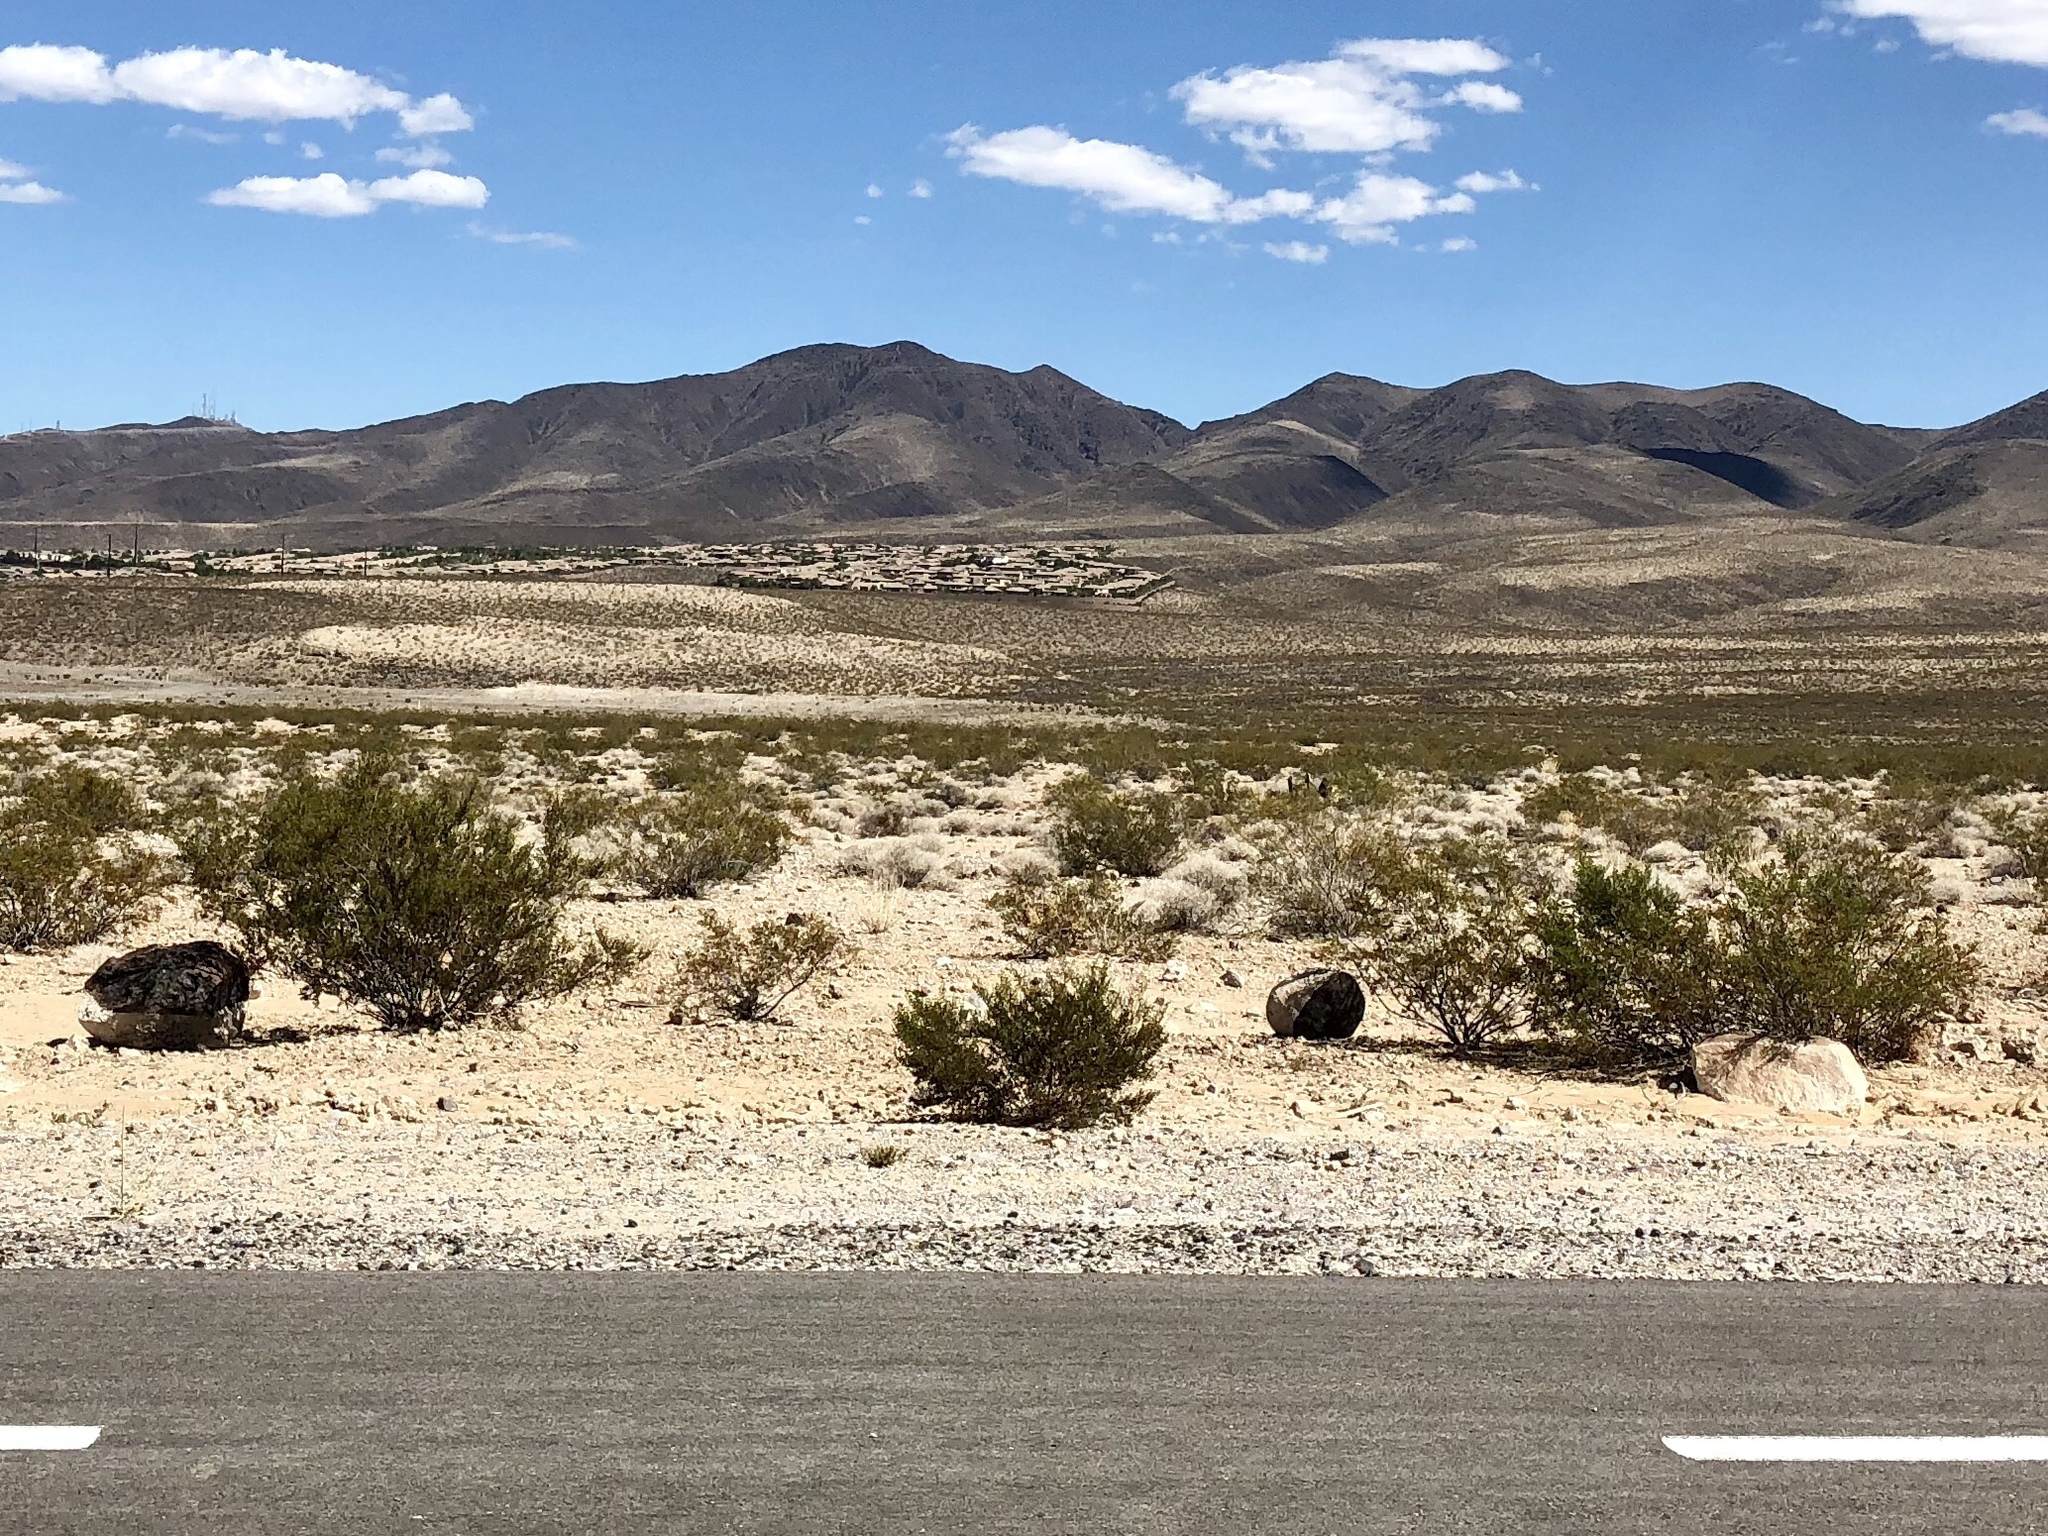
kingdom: Plantae
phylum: Tracheophyta
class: Magnoliopsida
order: Zygophyllales
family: Zygophyllaceae
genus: Larrea
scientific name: Larrea tridentata
